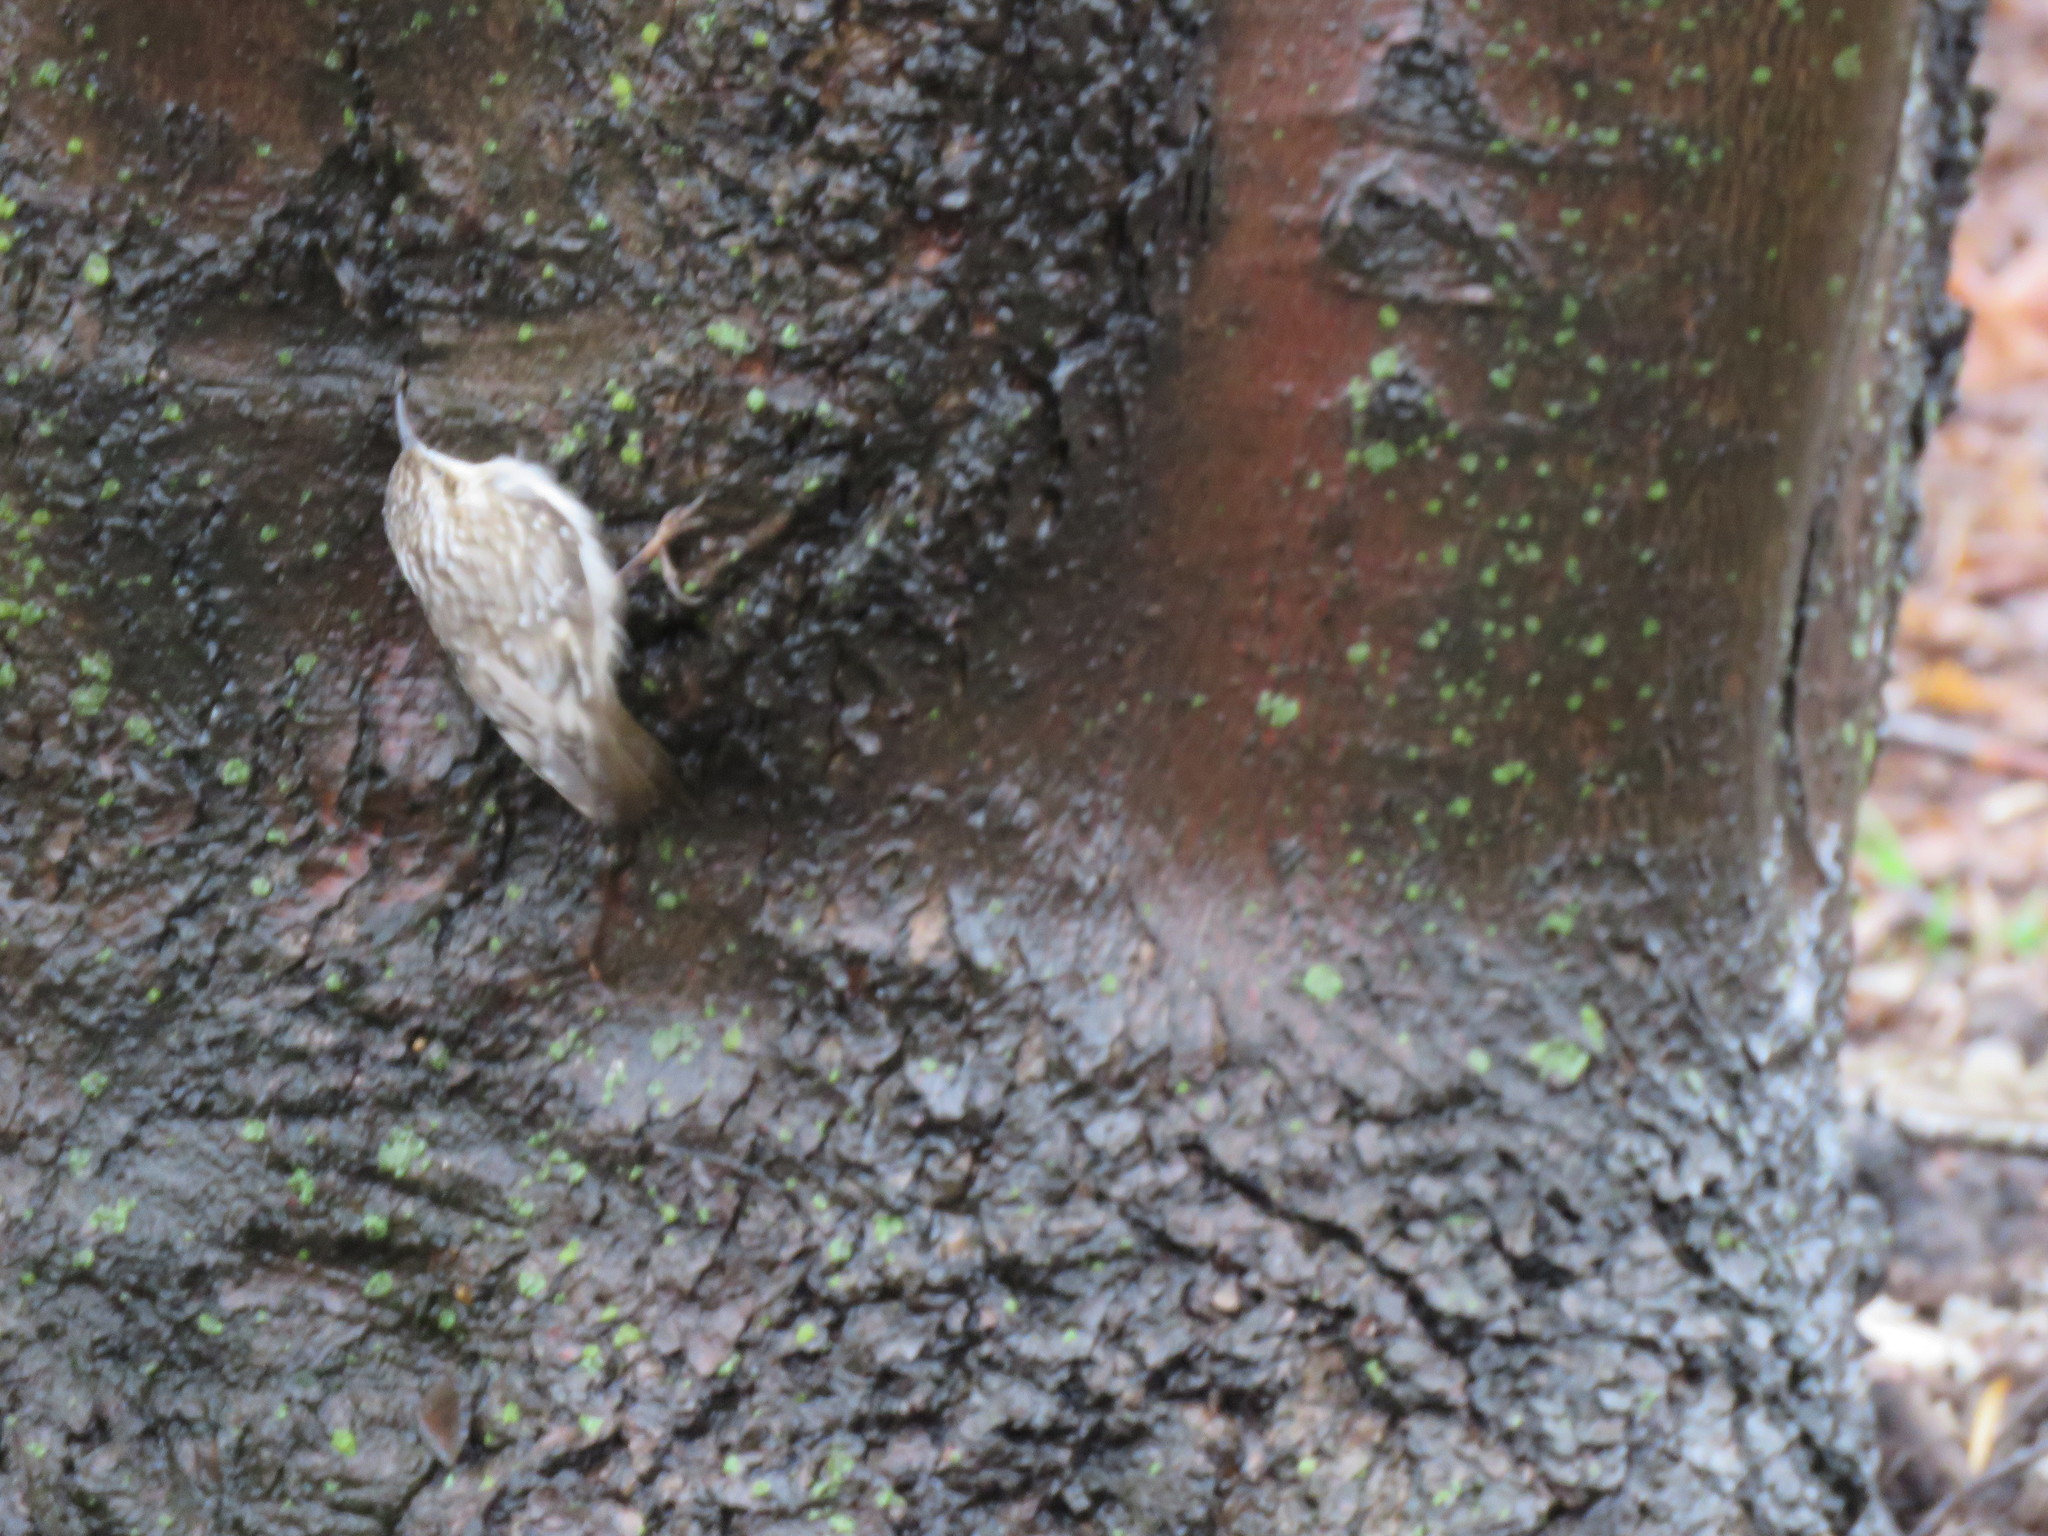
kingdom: Animalia
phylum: Chordata
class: Aves
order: Passeriformes
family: Certhiidae
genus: Certhia
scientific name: Certhia americana
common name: Brown creeper
